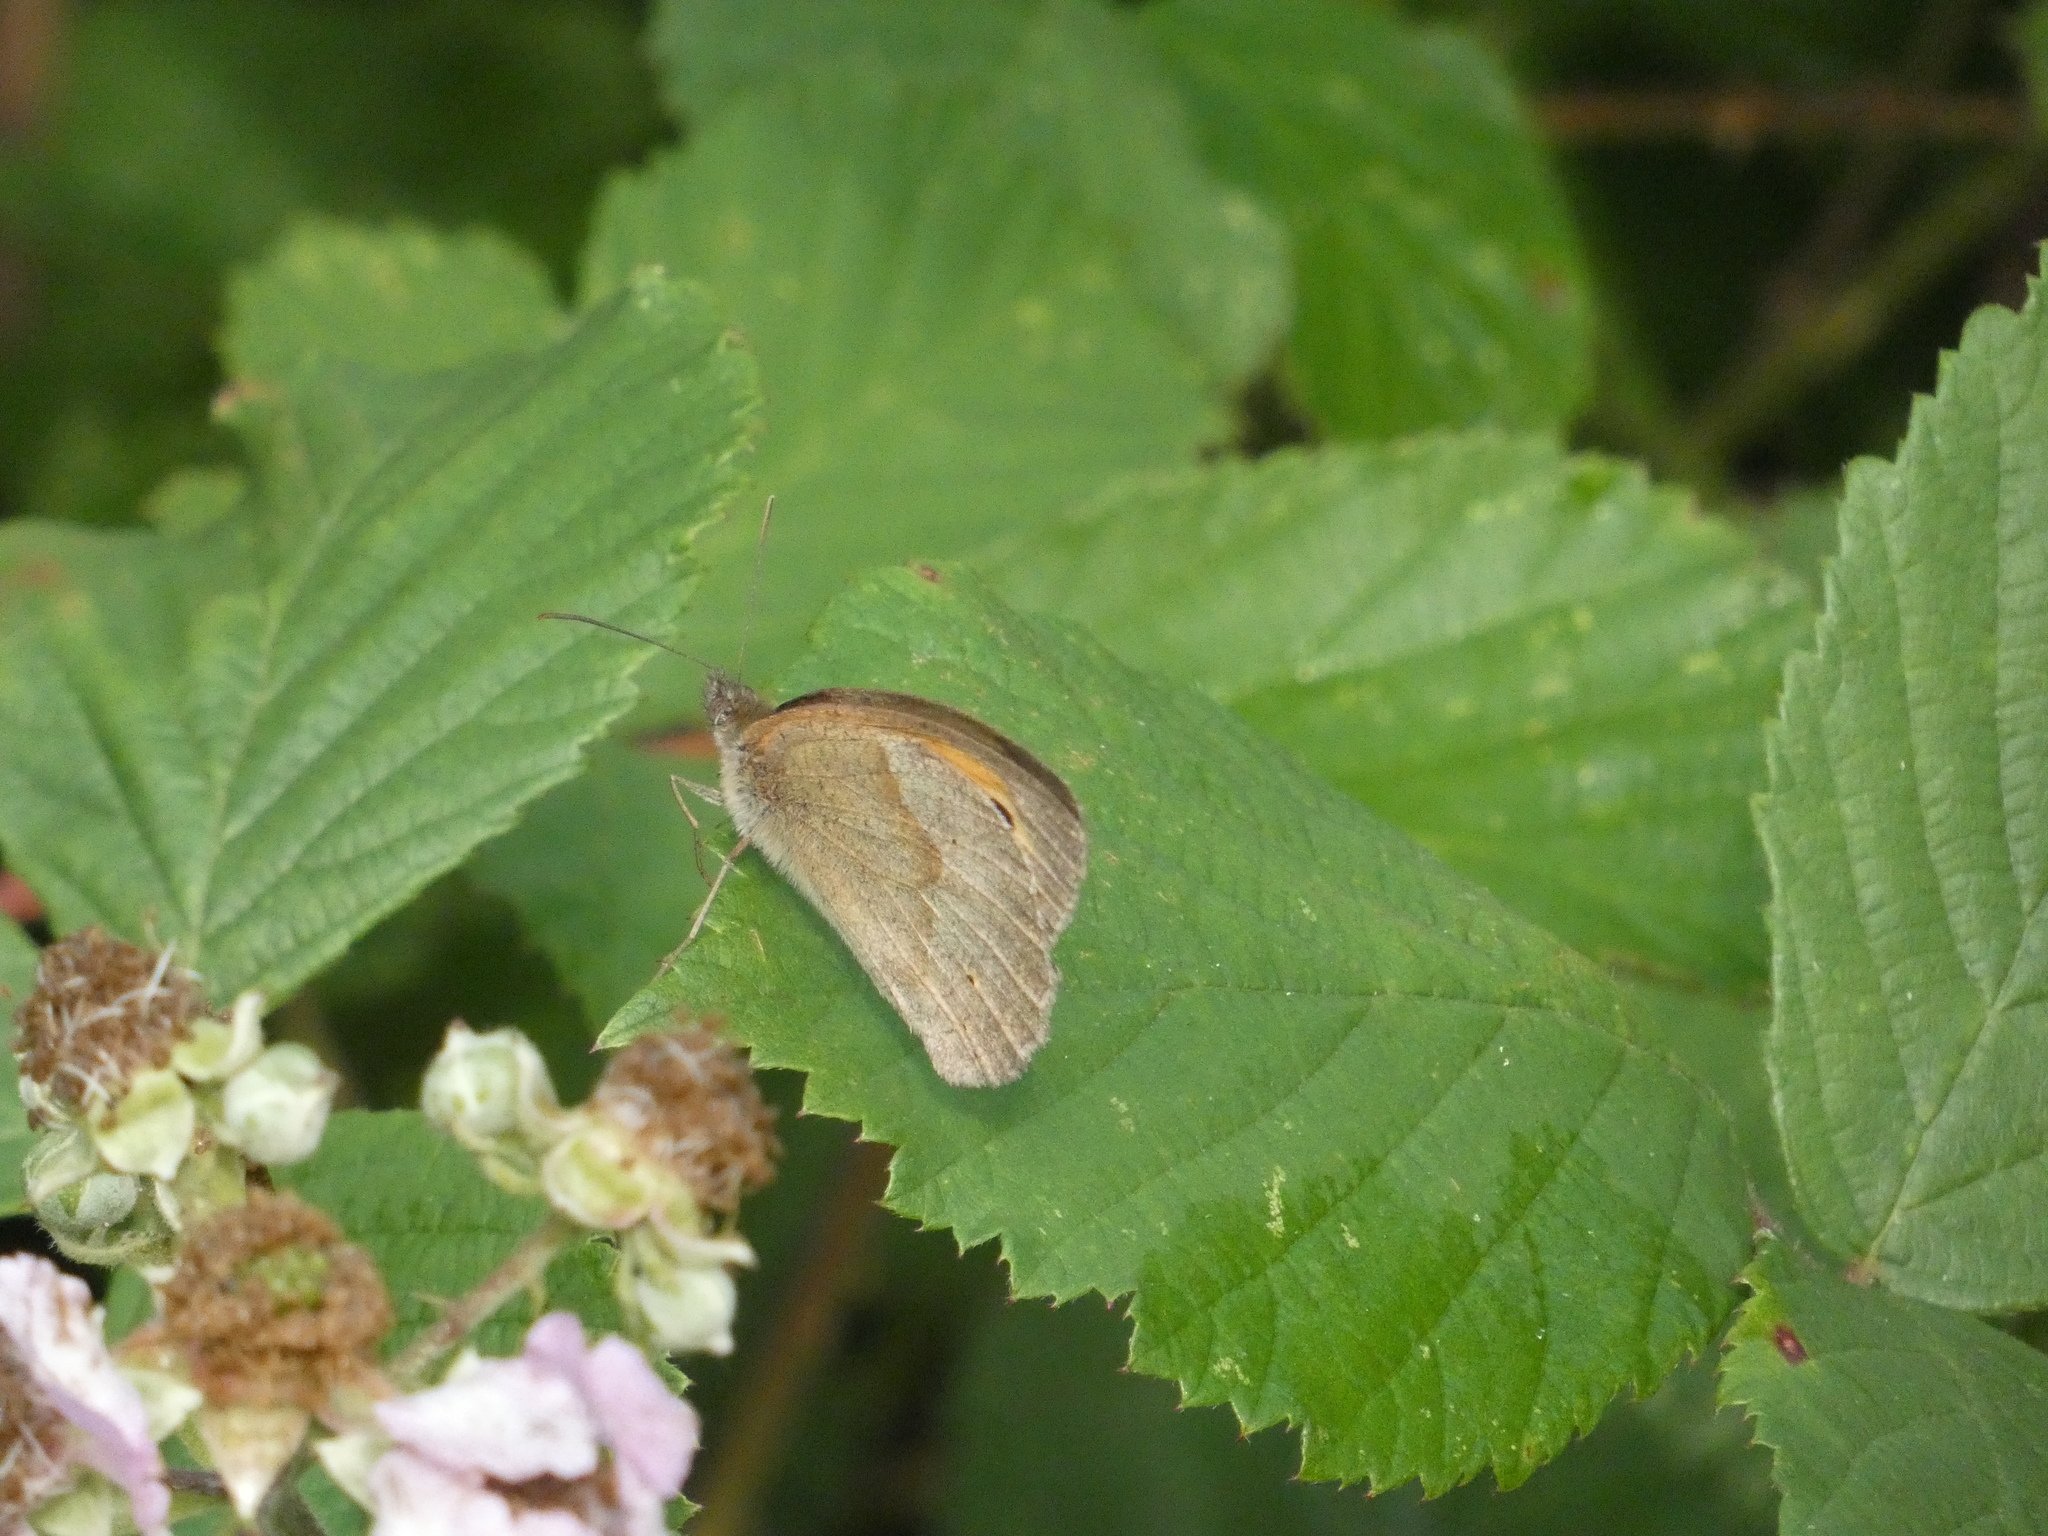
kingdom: Animalia
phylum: Arthropoda
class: Insecta
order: Lepidoptera
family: Nymphalidae
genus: Maniola
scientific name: Maniola jurtina
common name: Meadow brown
